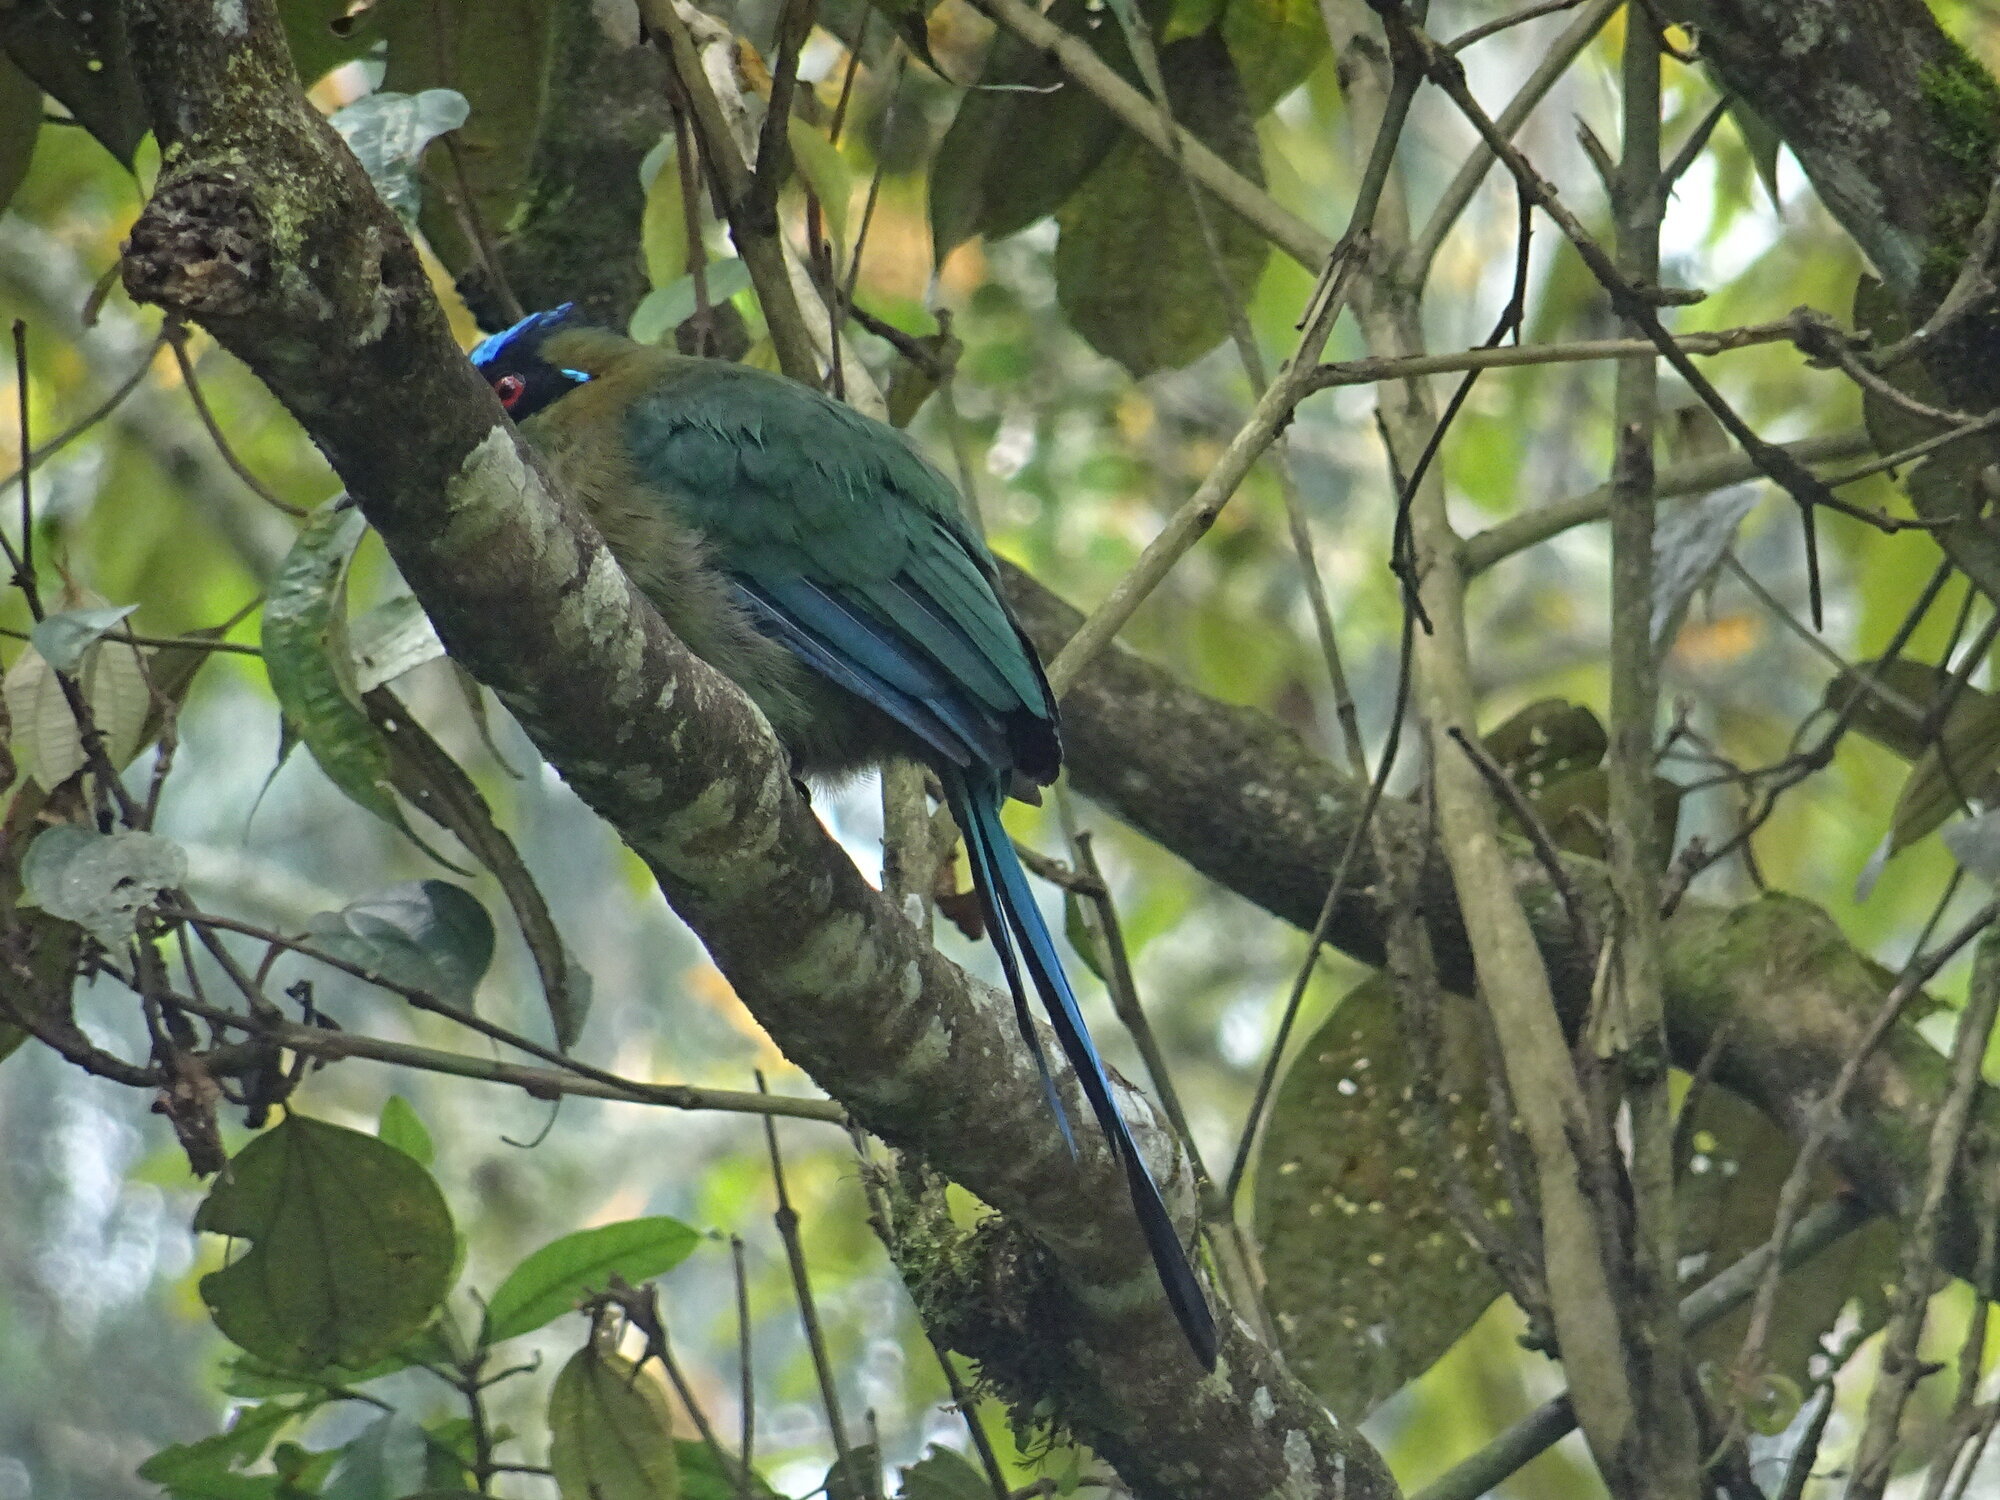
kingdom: Animalia
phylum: Chordata
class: Aves
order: Coraciiformes
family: Momotidae
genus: Momotus
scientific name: Momotus aequatorialis
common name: Andean motmot
